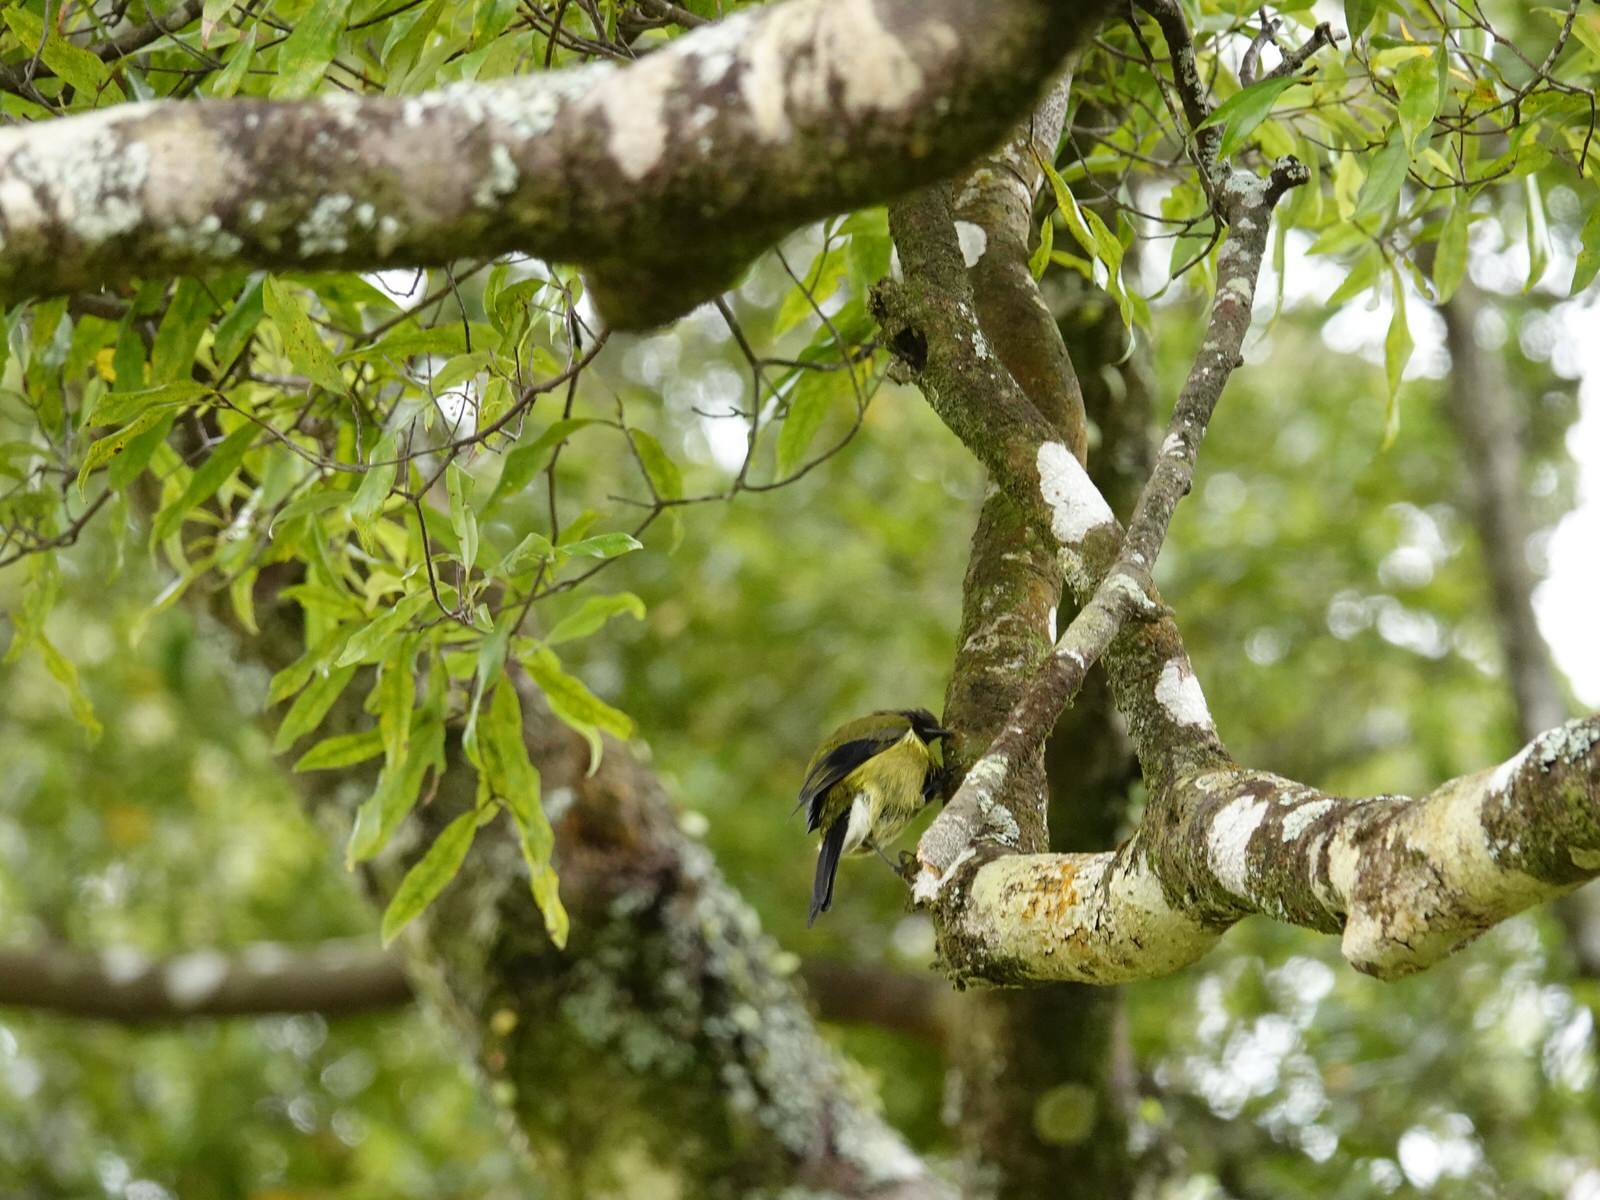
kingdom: Animalia
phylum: Chordata
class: Aves
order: Passeriformes
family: Meliphagidae
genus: Anthornis
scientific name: Anthornis melanura
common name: New zealand bellbird
